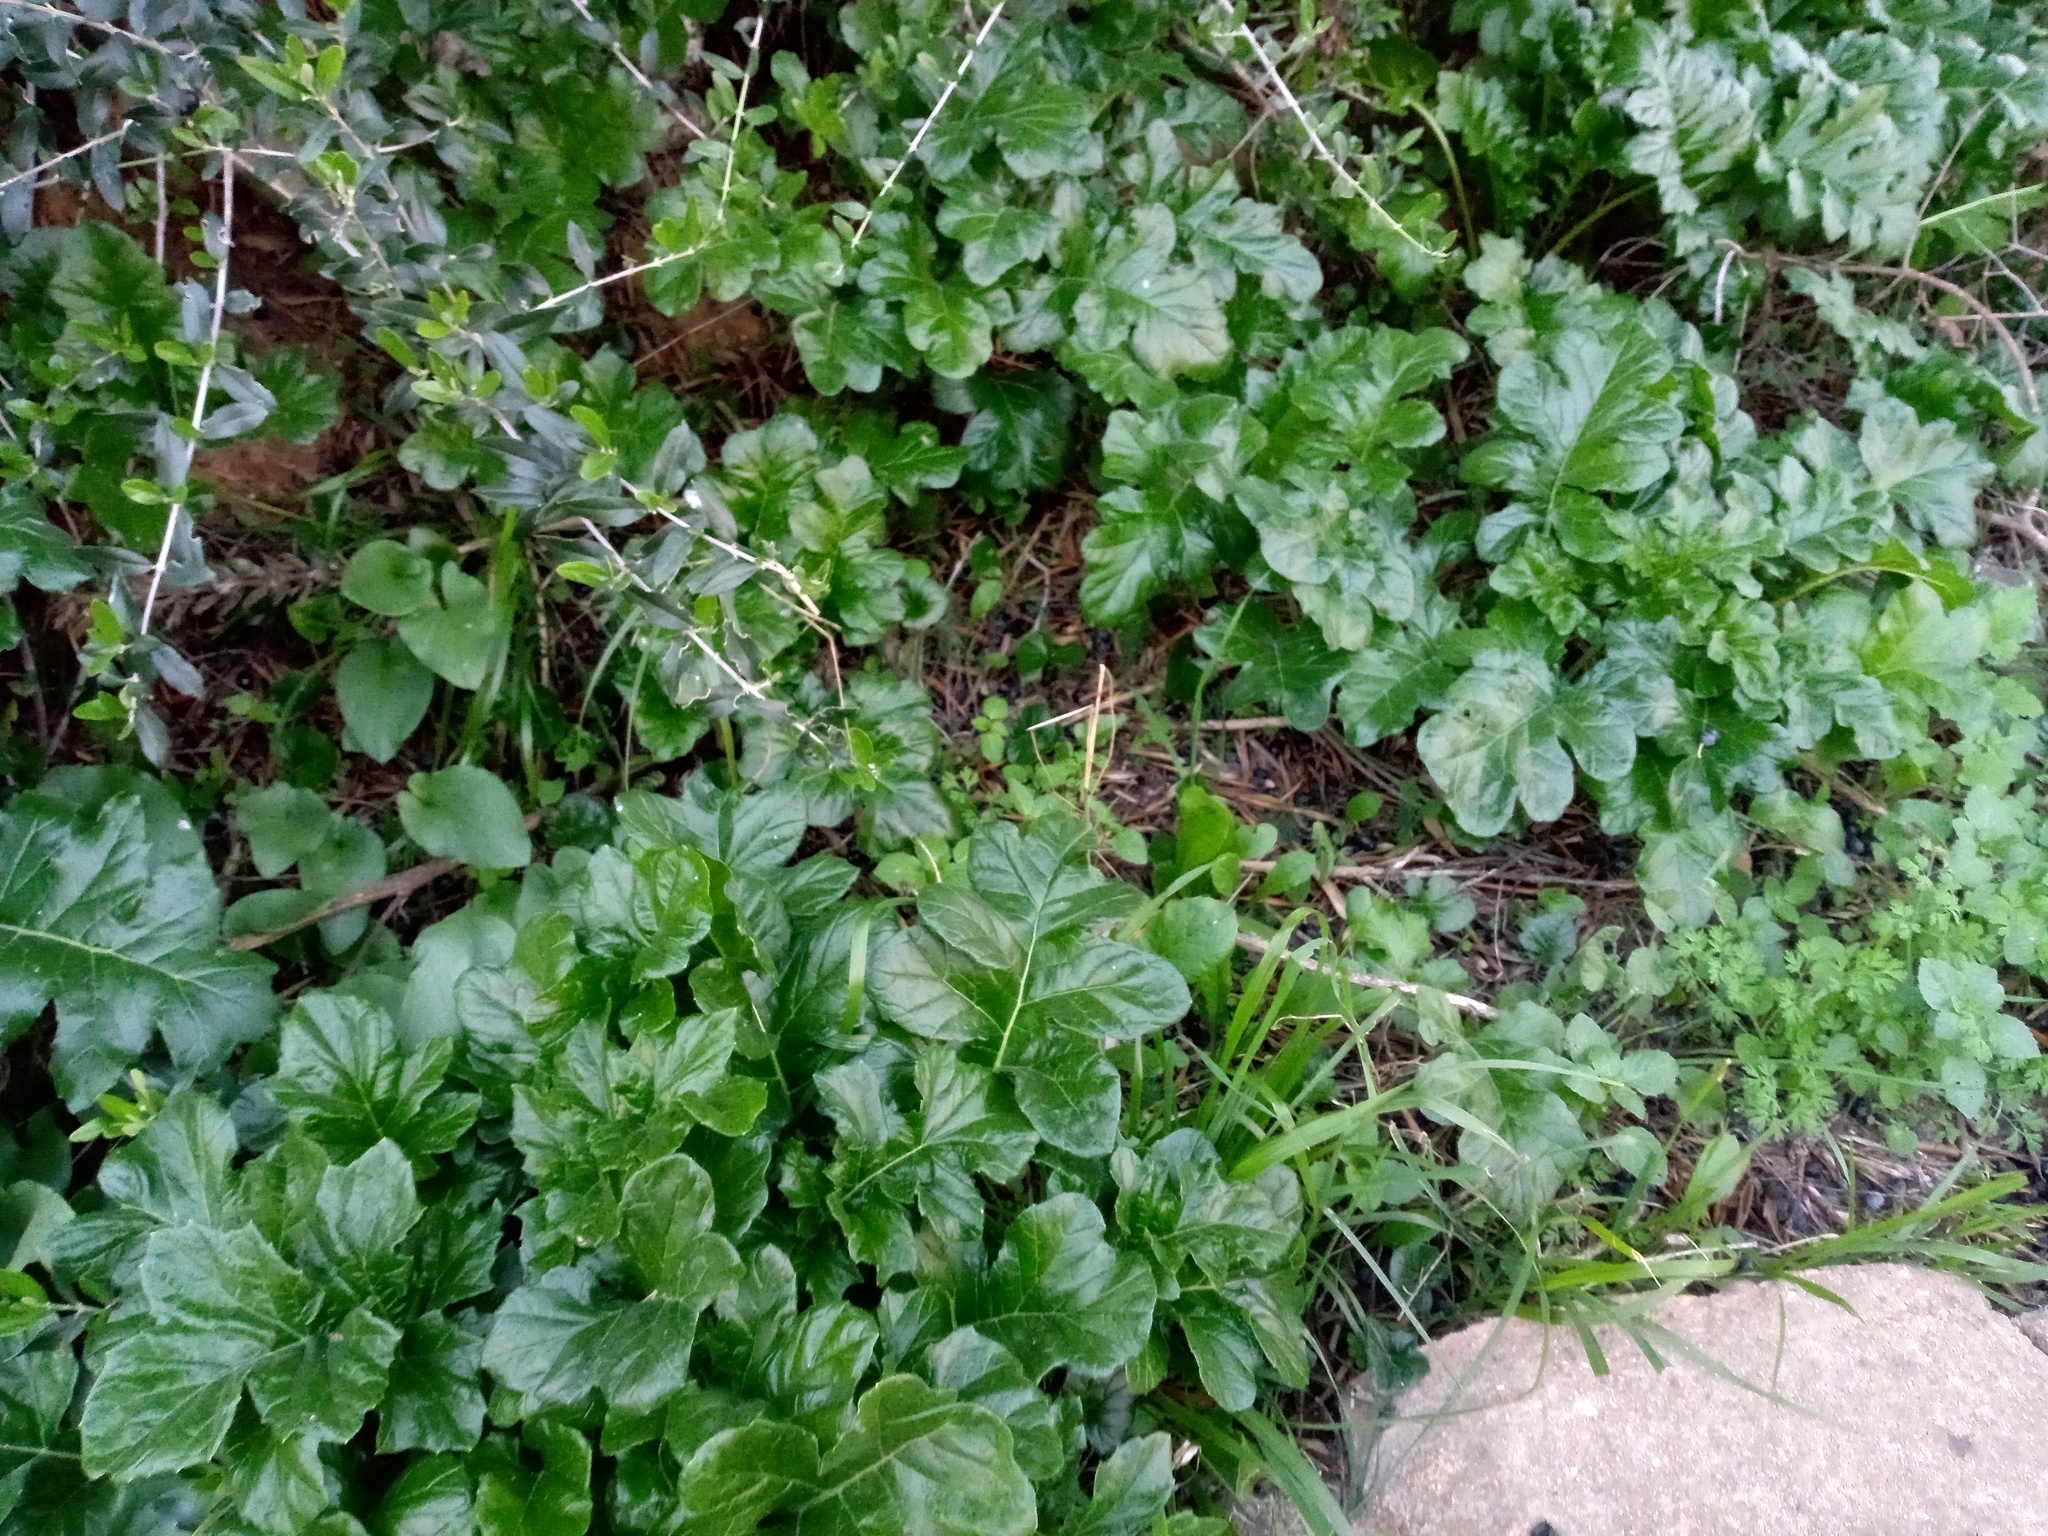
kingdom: Plantae
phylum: Tracheophyta
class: Magnoliopsida
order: Lamiales
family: Acanthaceae
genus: Acanthus
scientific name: Acanthus mollis
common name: Bear's-breech
